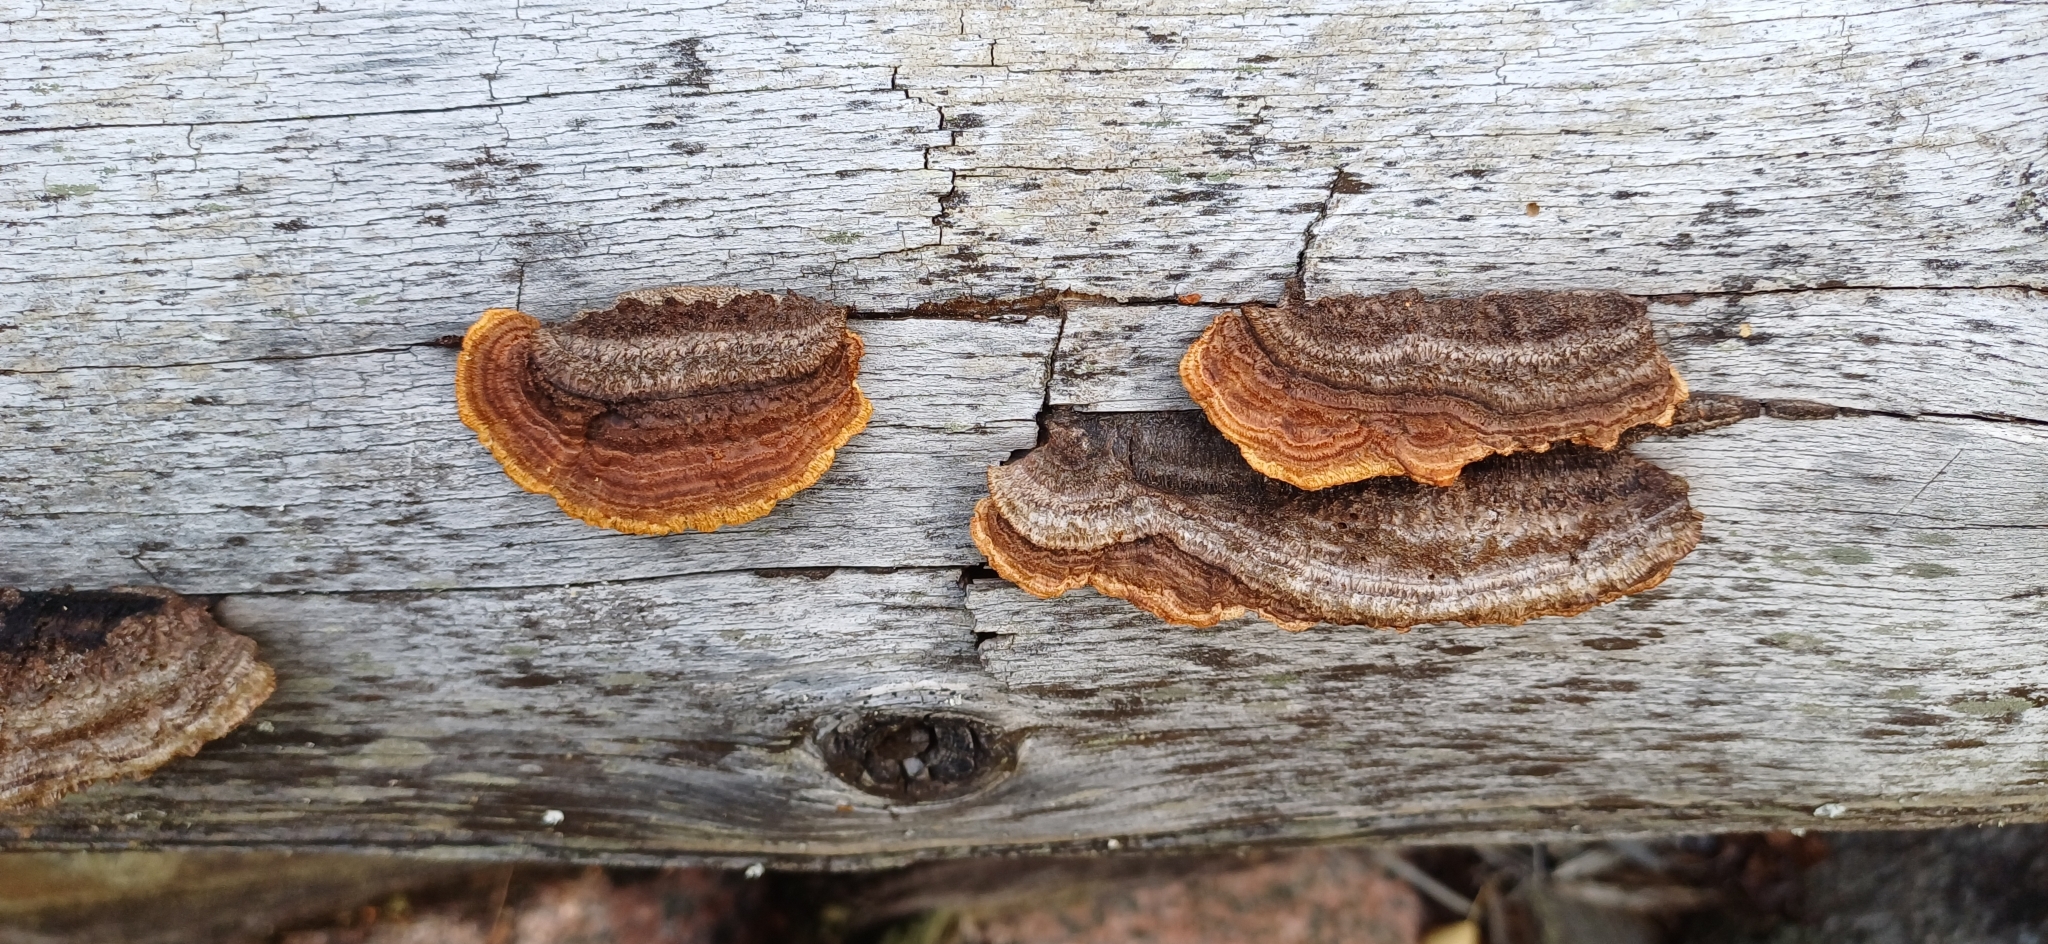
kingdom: Fungi
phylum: Basidiomycota
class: Agaricomycetes
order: Gloeophyllales
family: Gloeophyllaceae
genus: Gloeophyllum
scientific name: Gloeophyllum sepiarium
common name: Conifer mazegill
